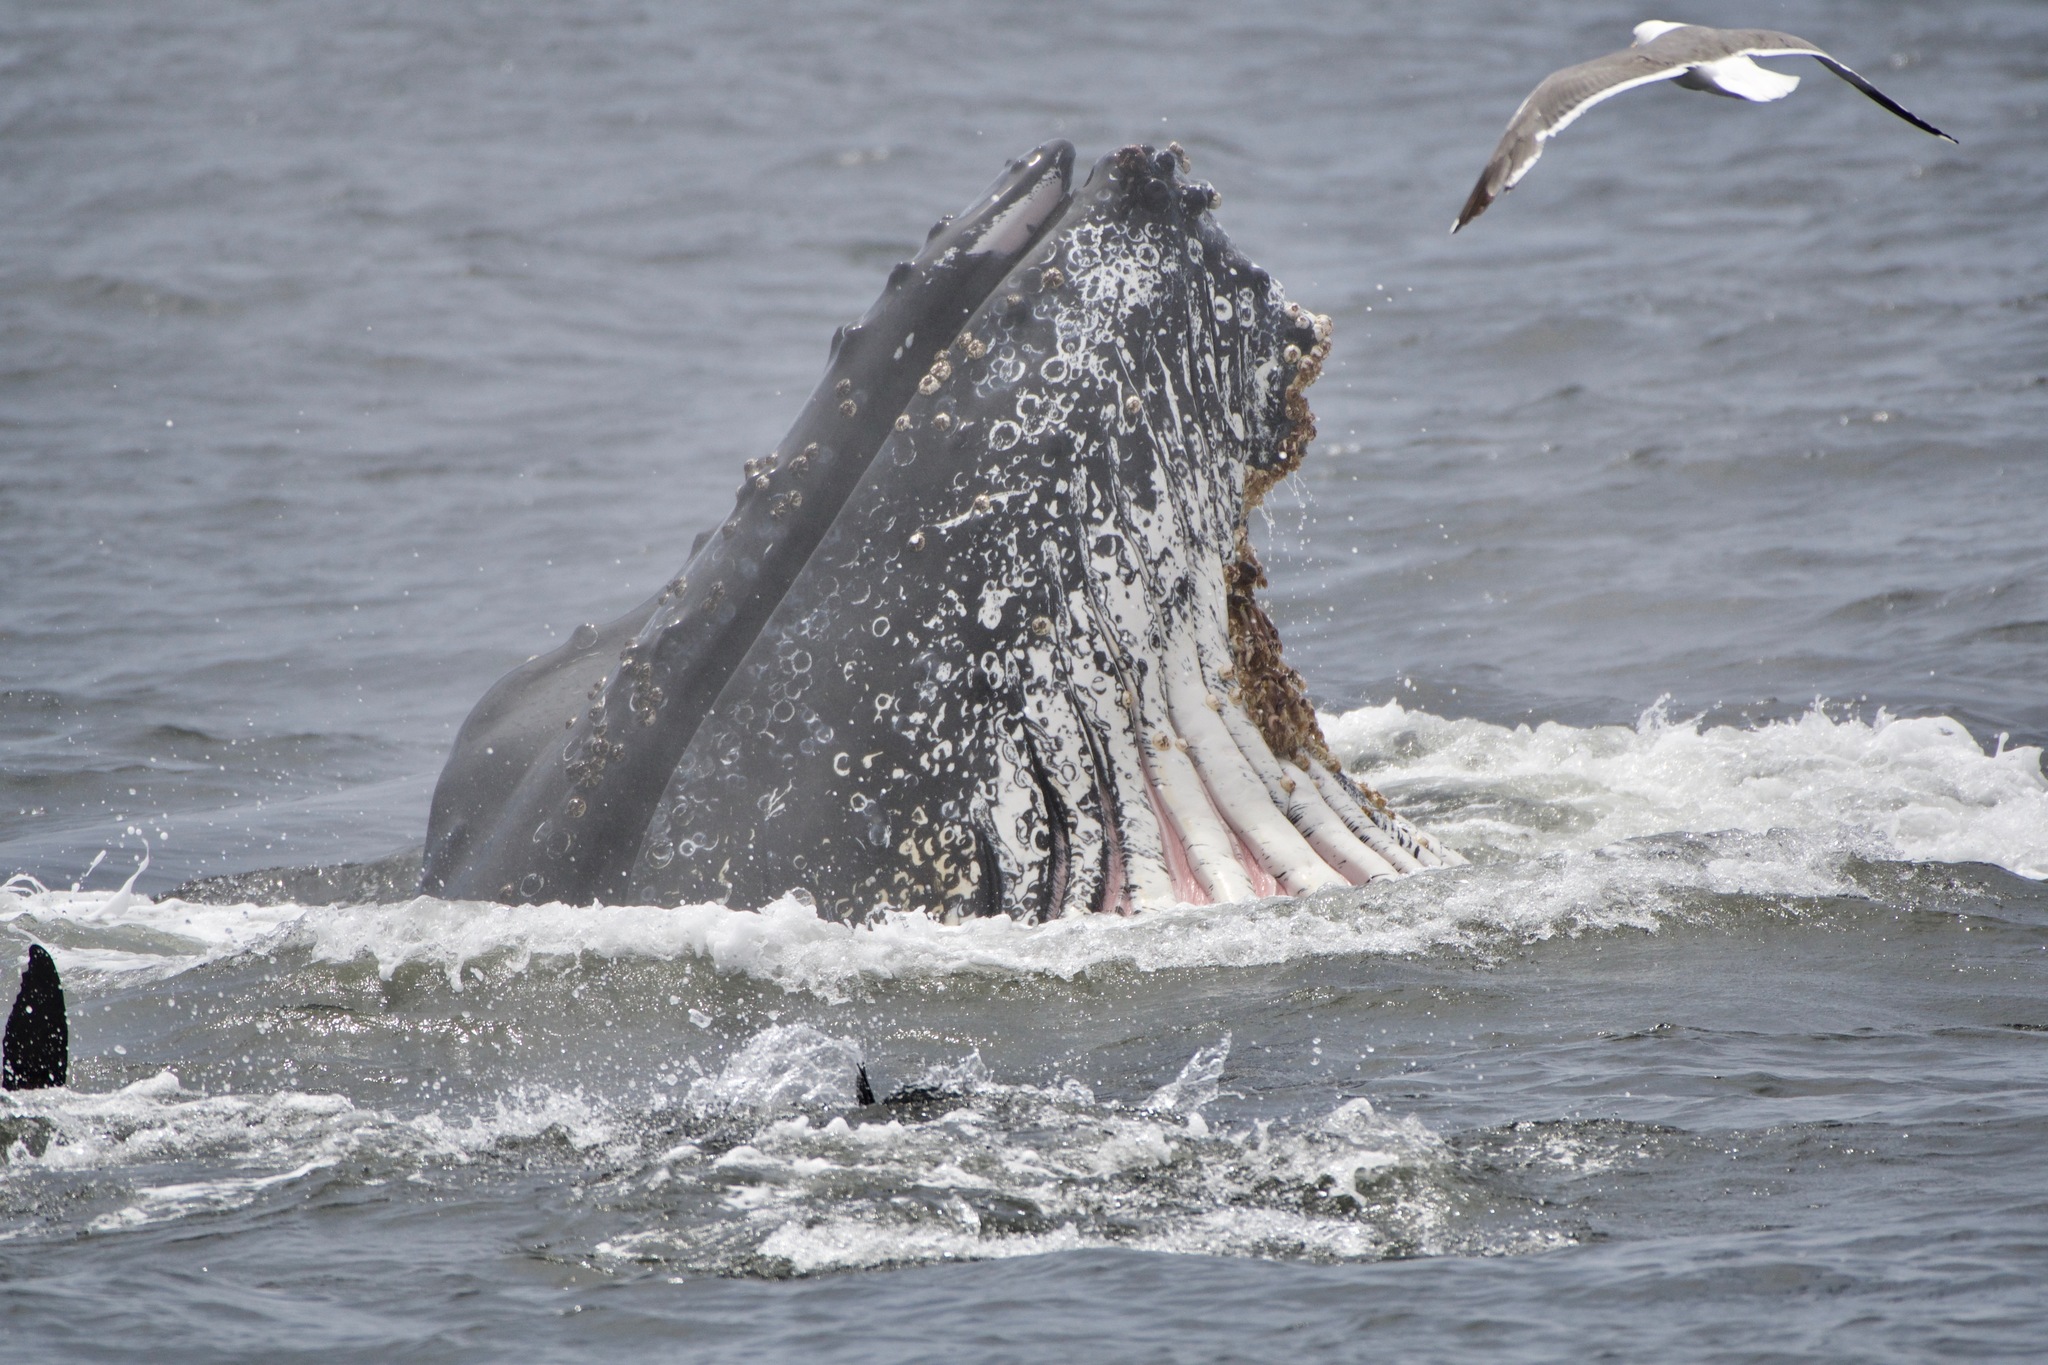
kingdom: Animalia
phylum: Chordata
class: Mammalia
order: Cetacea
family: Balaenopteridae
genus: Megaptera
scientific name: Megaptera novaeangliae
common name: Humpback whale
